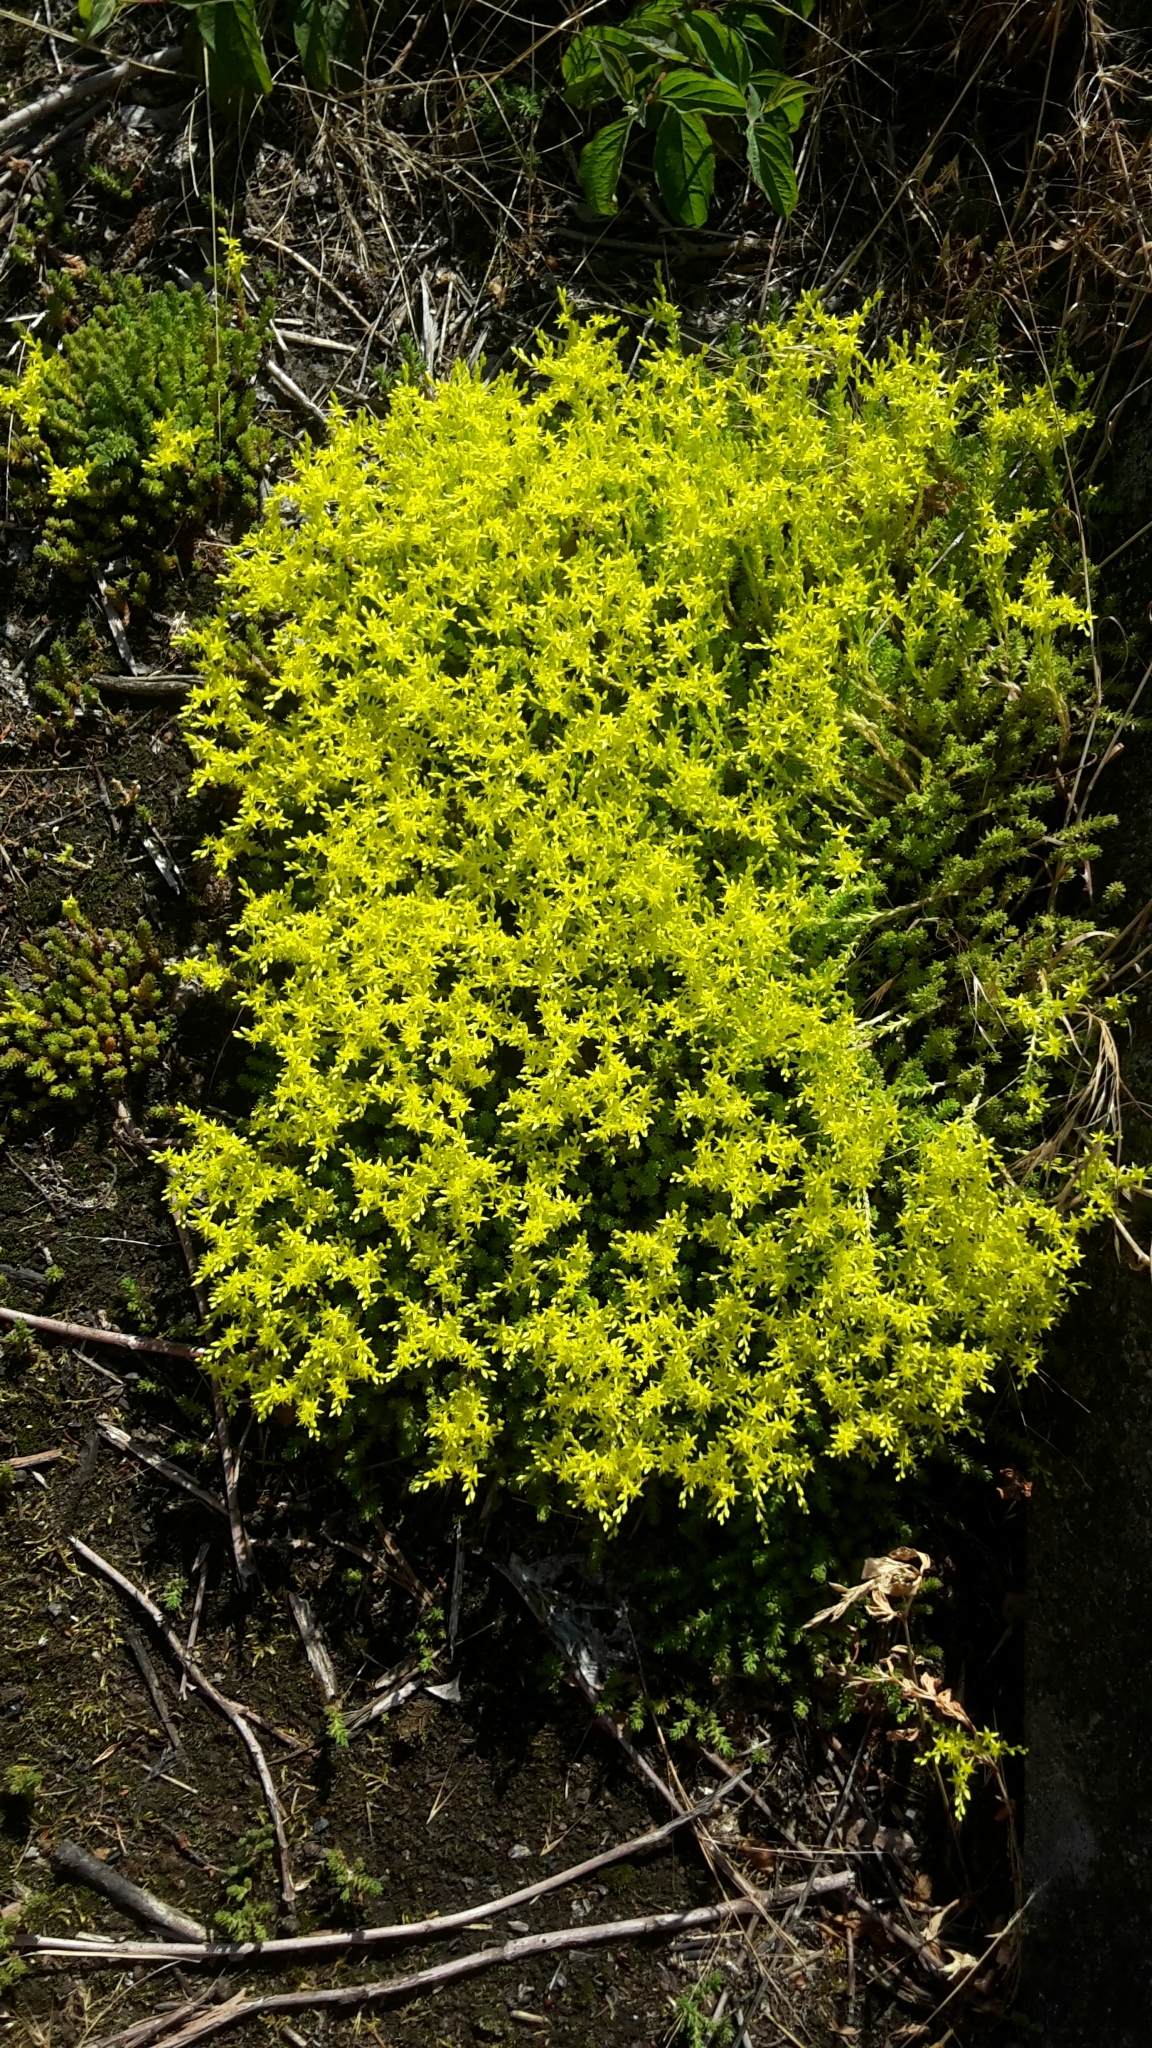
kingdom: Plantae
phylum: Tracheophyta
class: Magnoliopsida
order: Saxifragales
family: Crassulaceae
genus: Sedum
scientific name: Sedum sexangulare
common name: Tasteless stonecrop
